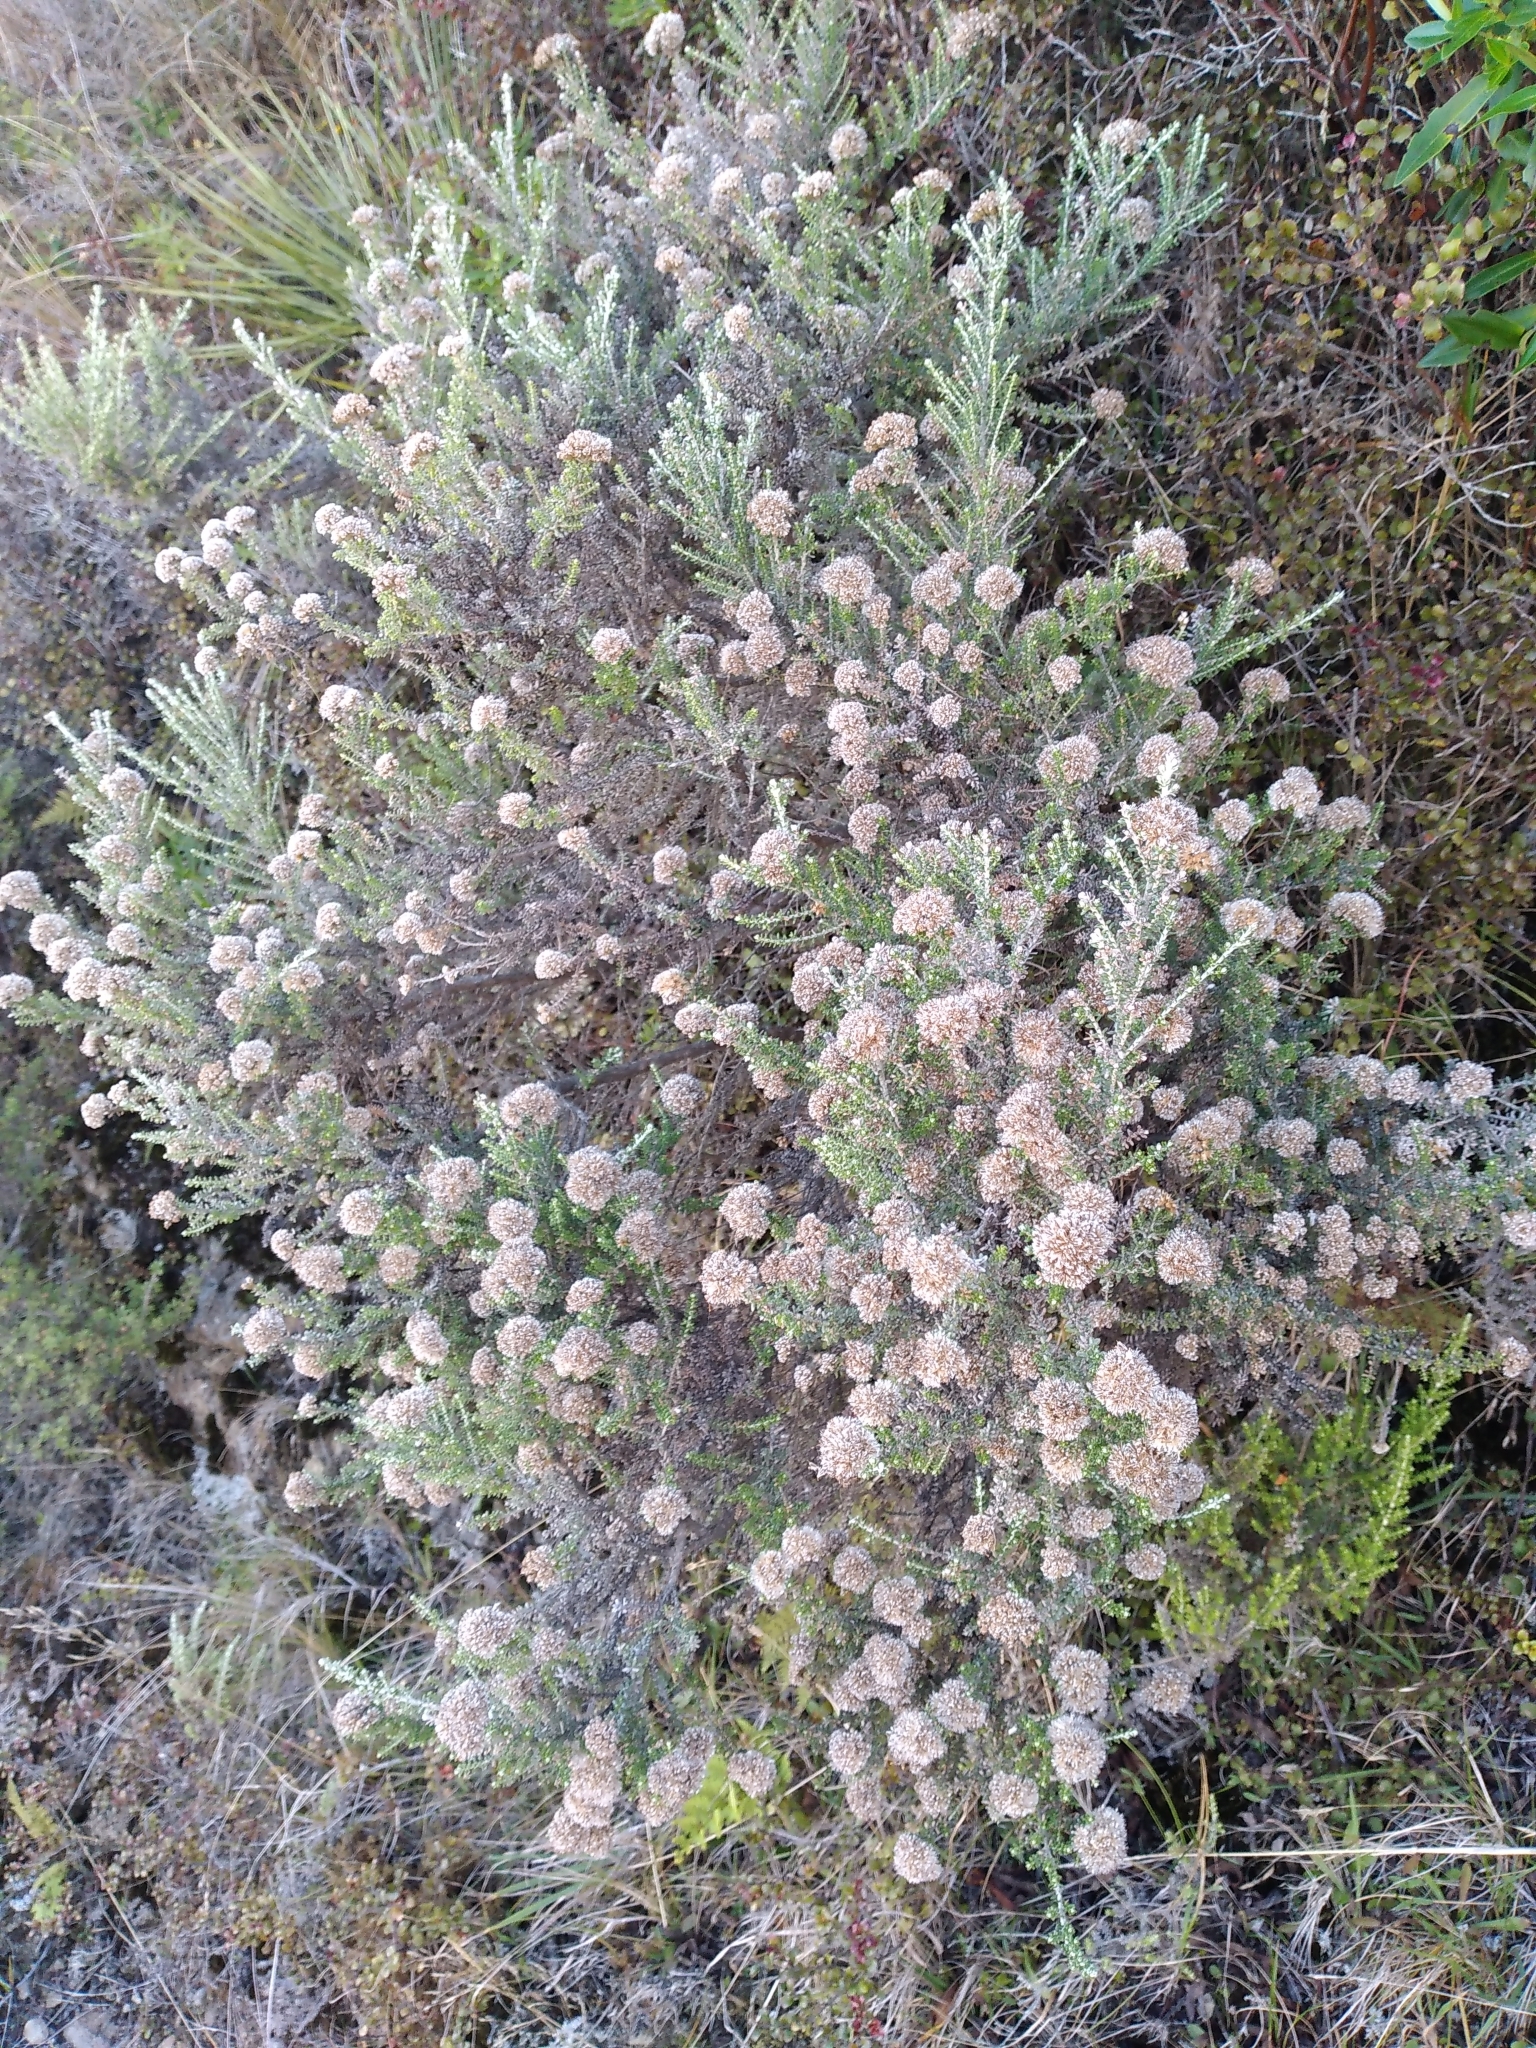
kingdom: Plantae
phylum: Tracheophyta
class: Magnoliopsida
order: Asterales
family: Asteraceae
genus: Ozothamnus
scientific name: Ozothamnus leptophyllus
